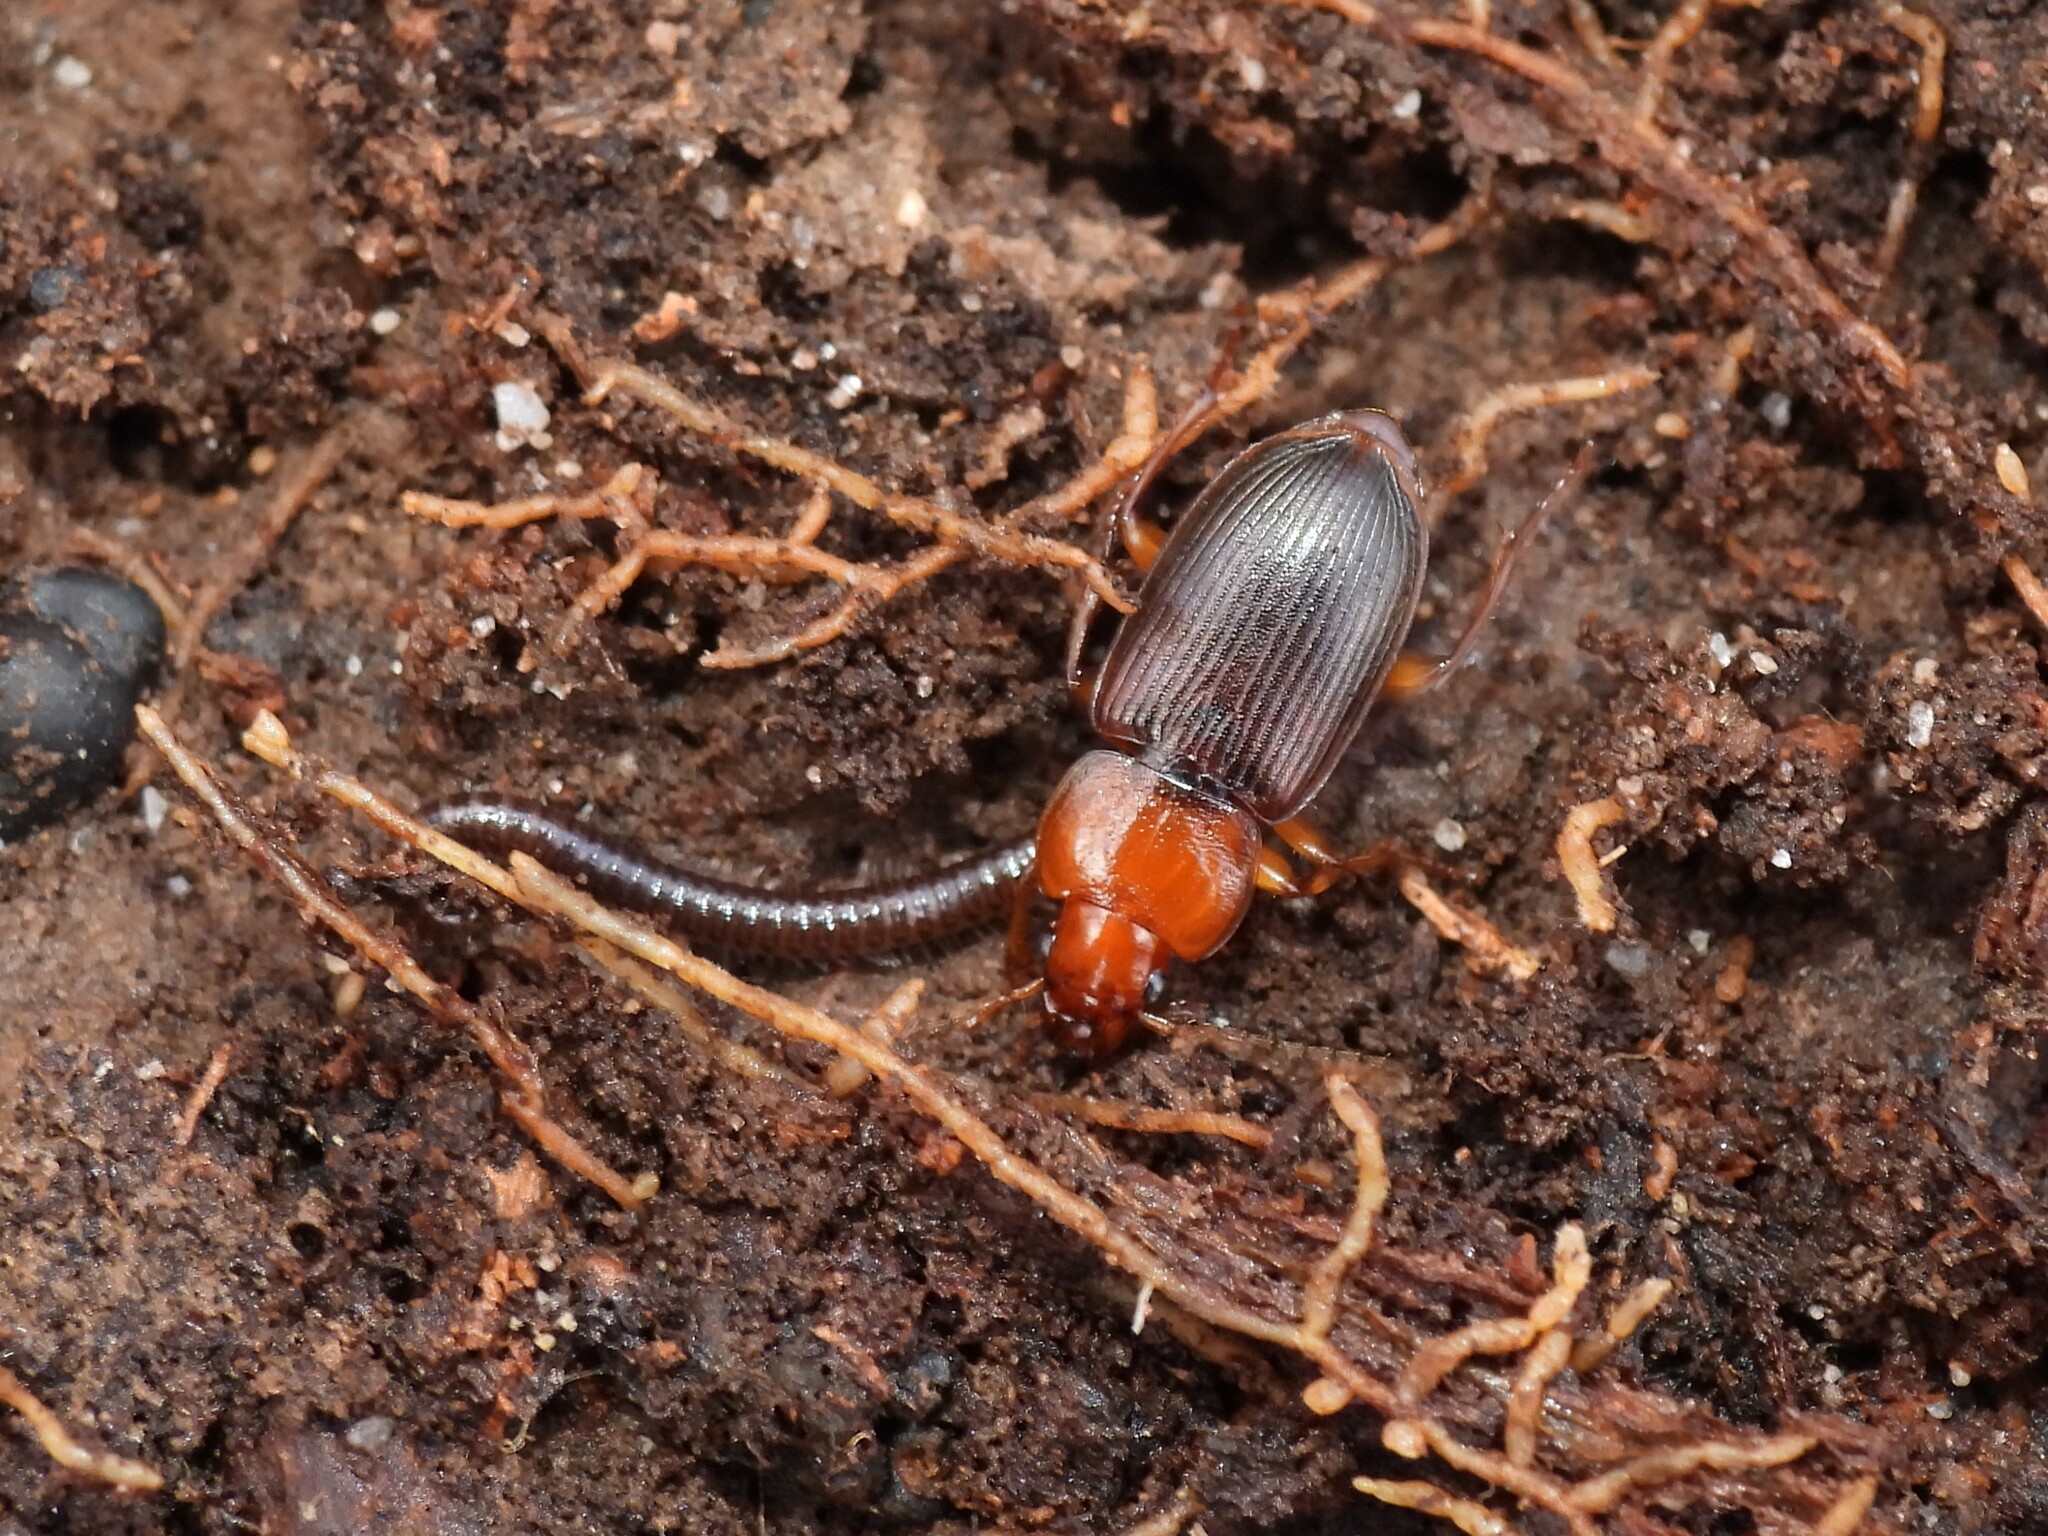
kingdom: Animalia
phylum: Arthropoda
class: Insecta
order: Coleoptera
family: Carabidae
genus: Amphasia
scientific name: Amphasia interstitialis
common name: Red-headed ground beetle
